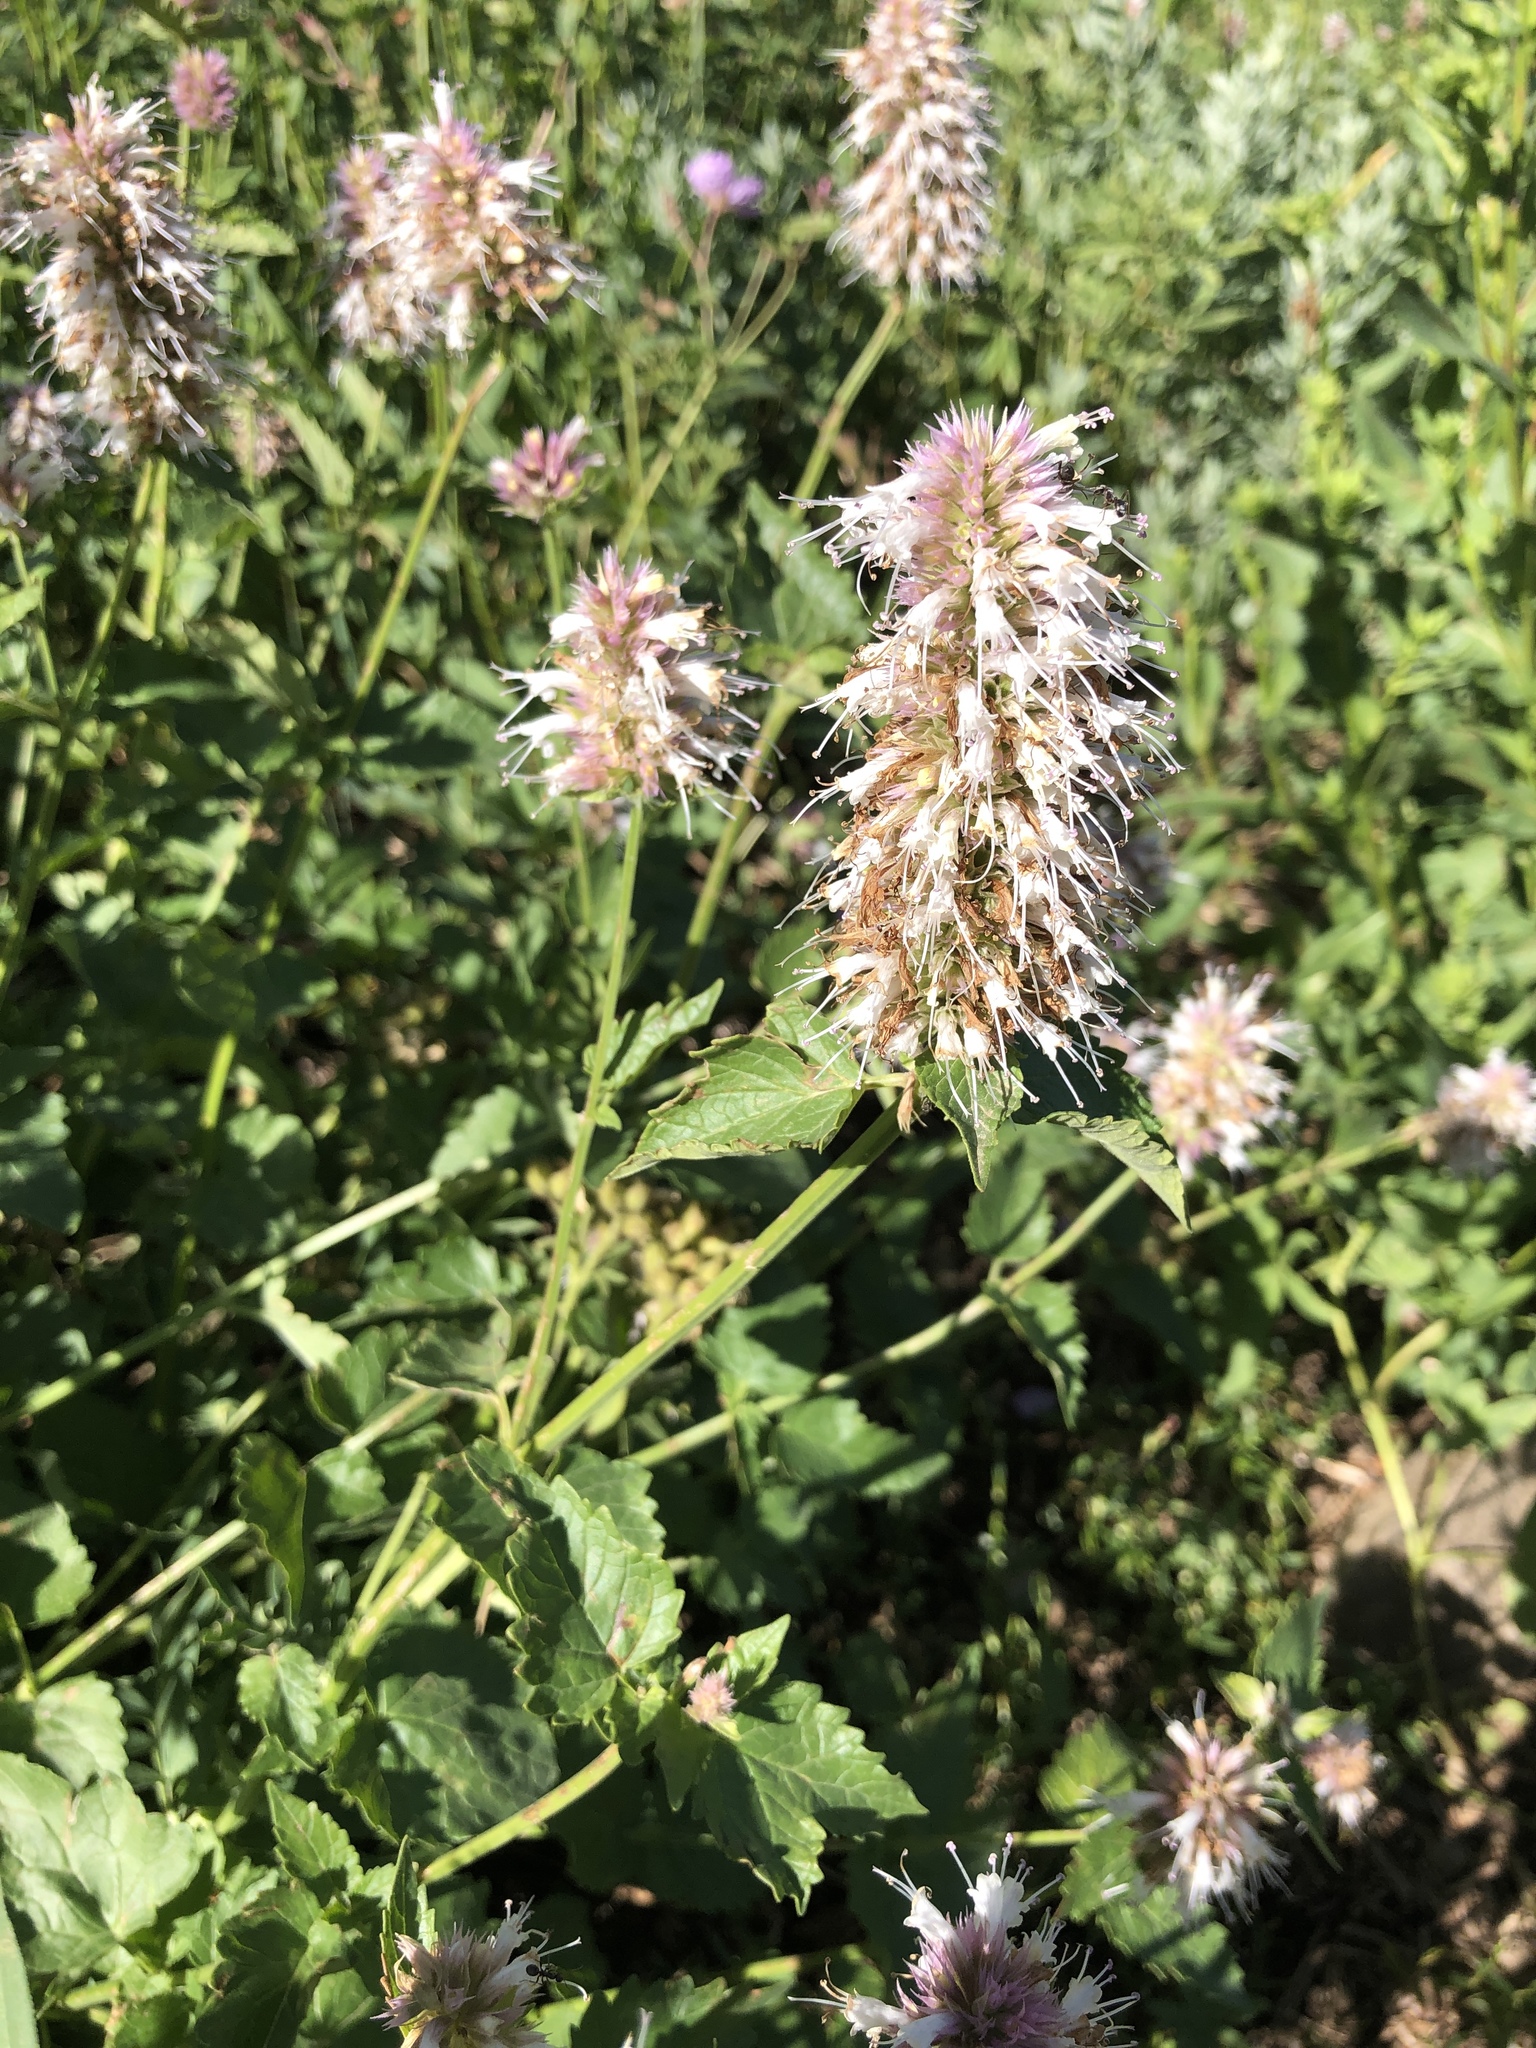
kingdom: Plantae
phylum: Tracheophyta
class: Magnoliopsida
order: Lamiales
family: Lamiaceae
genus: Agastache
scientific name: Agastache urticifolia
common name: Horsemint giant hyssop
